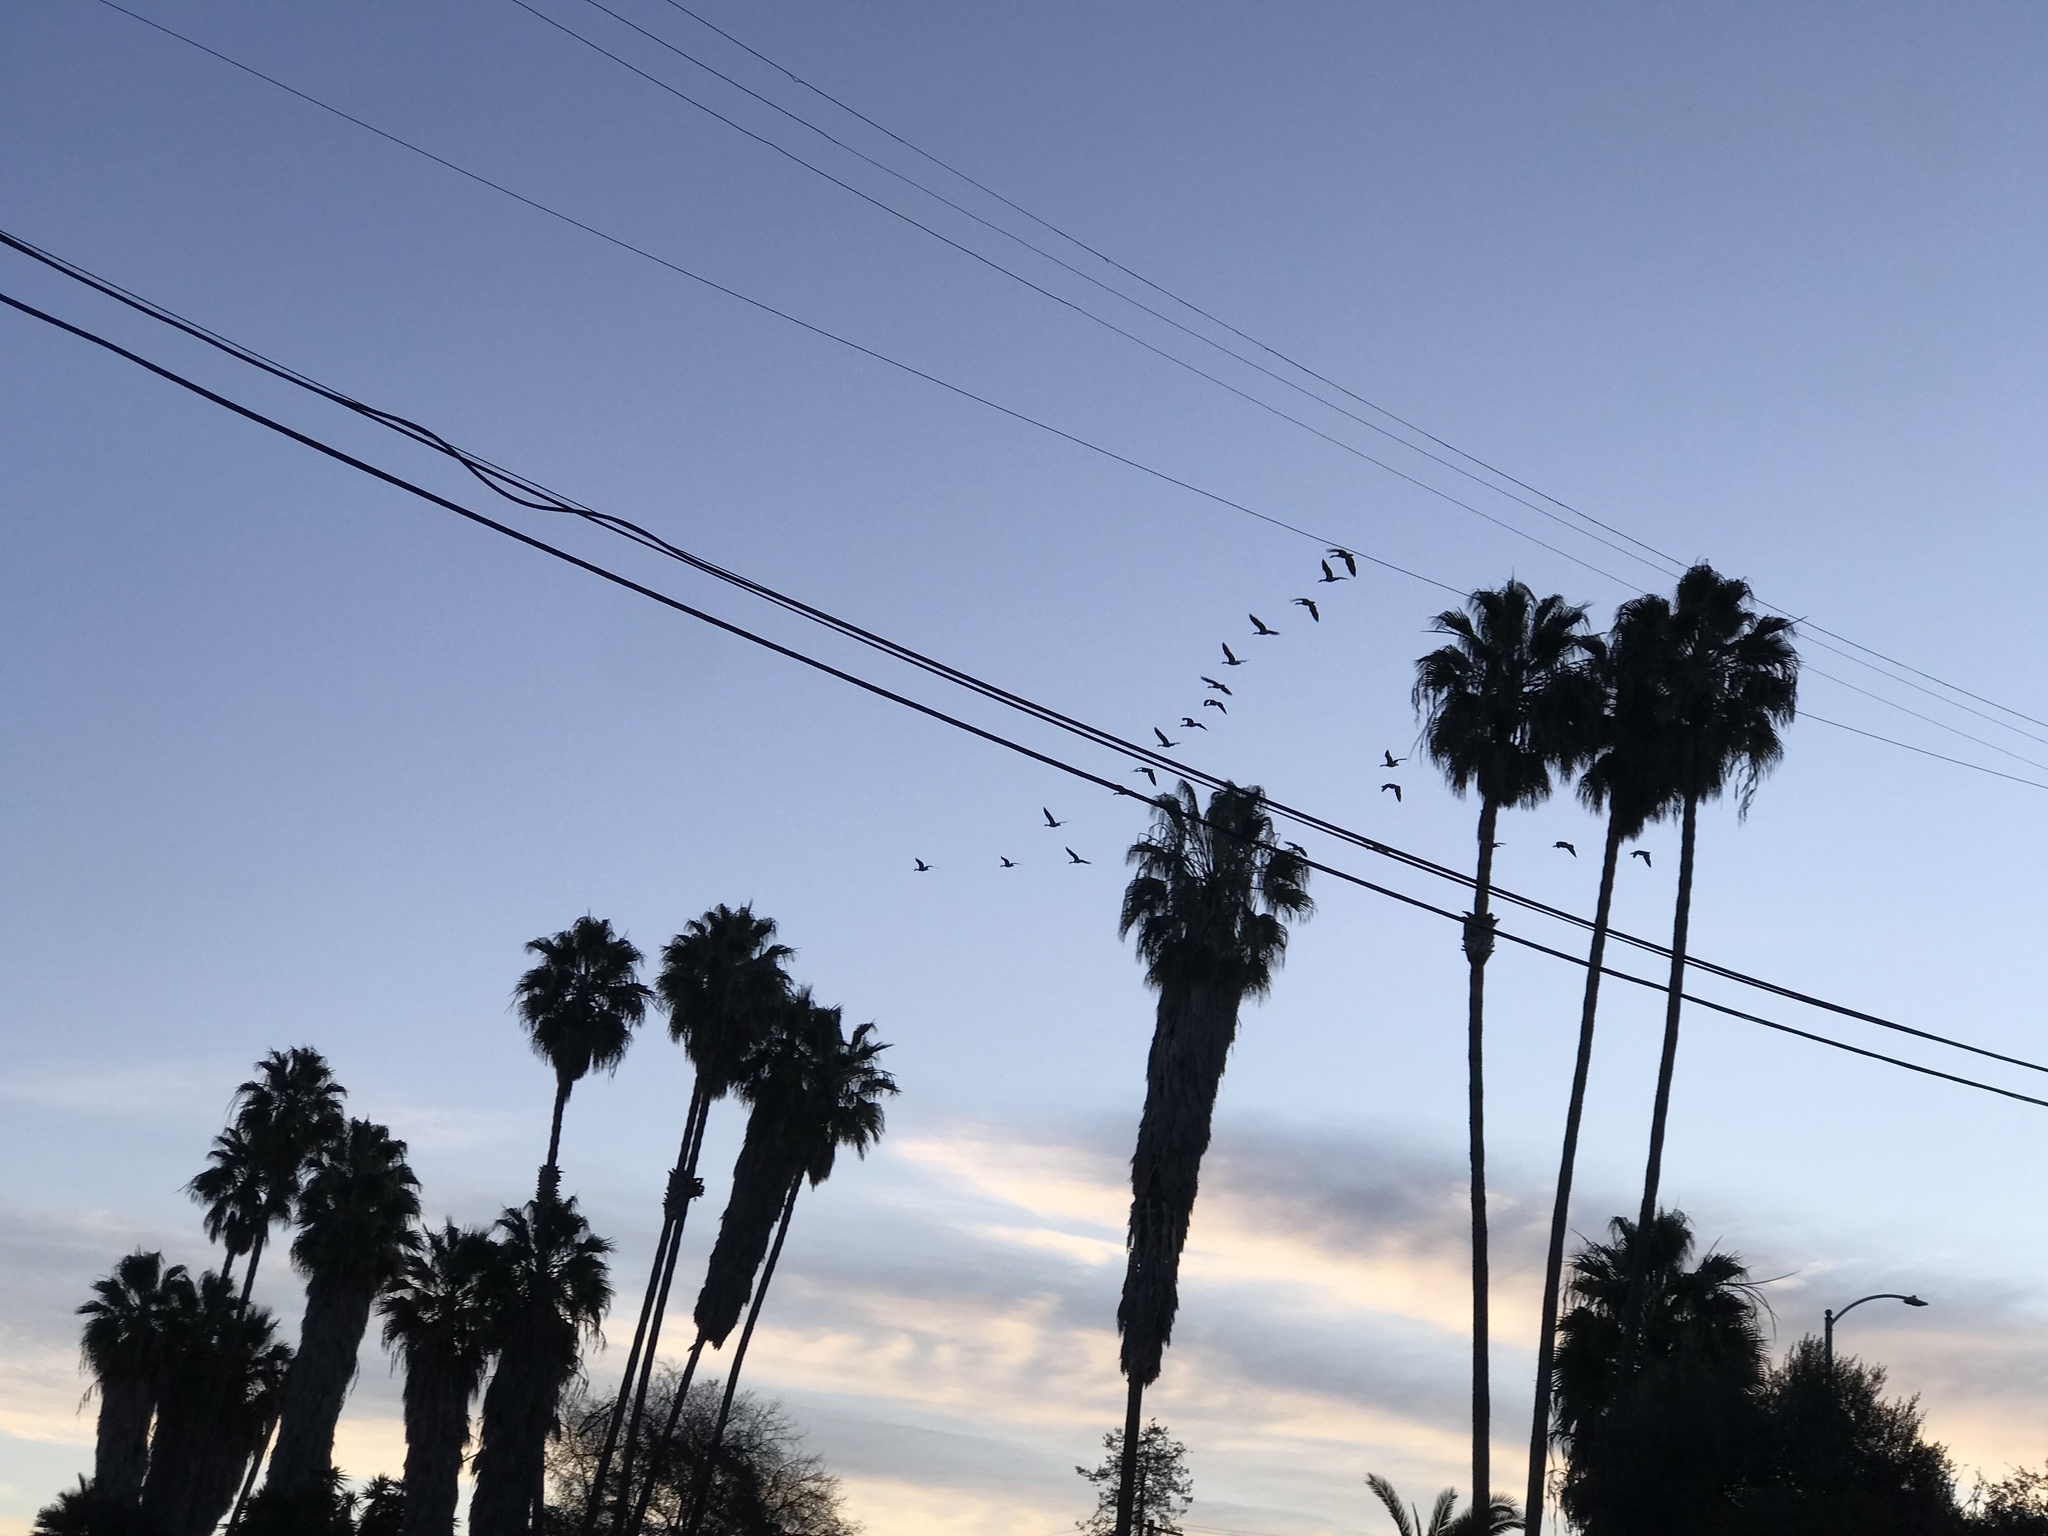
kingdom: Animalia
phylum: Chordata
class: Aves
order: Anseriformes
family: Anatidae
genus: Branta
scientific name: Branta canadensis
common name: Canada goose
